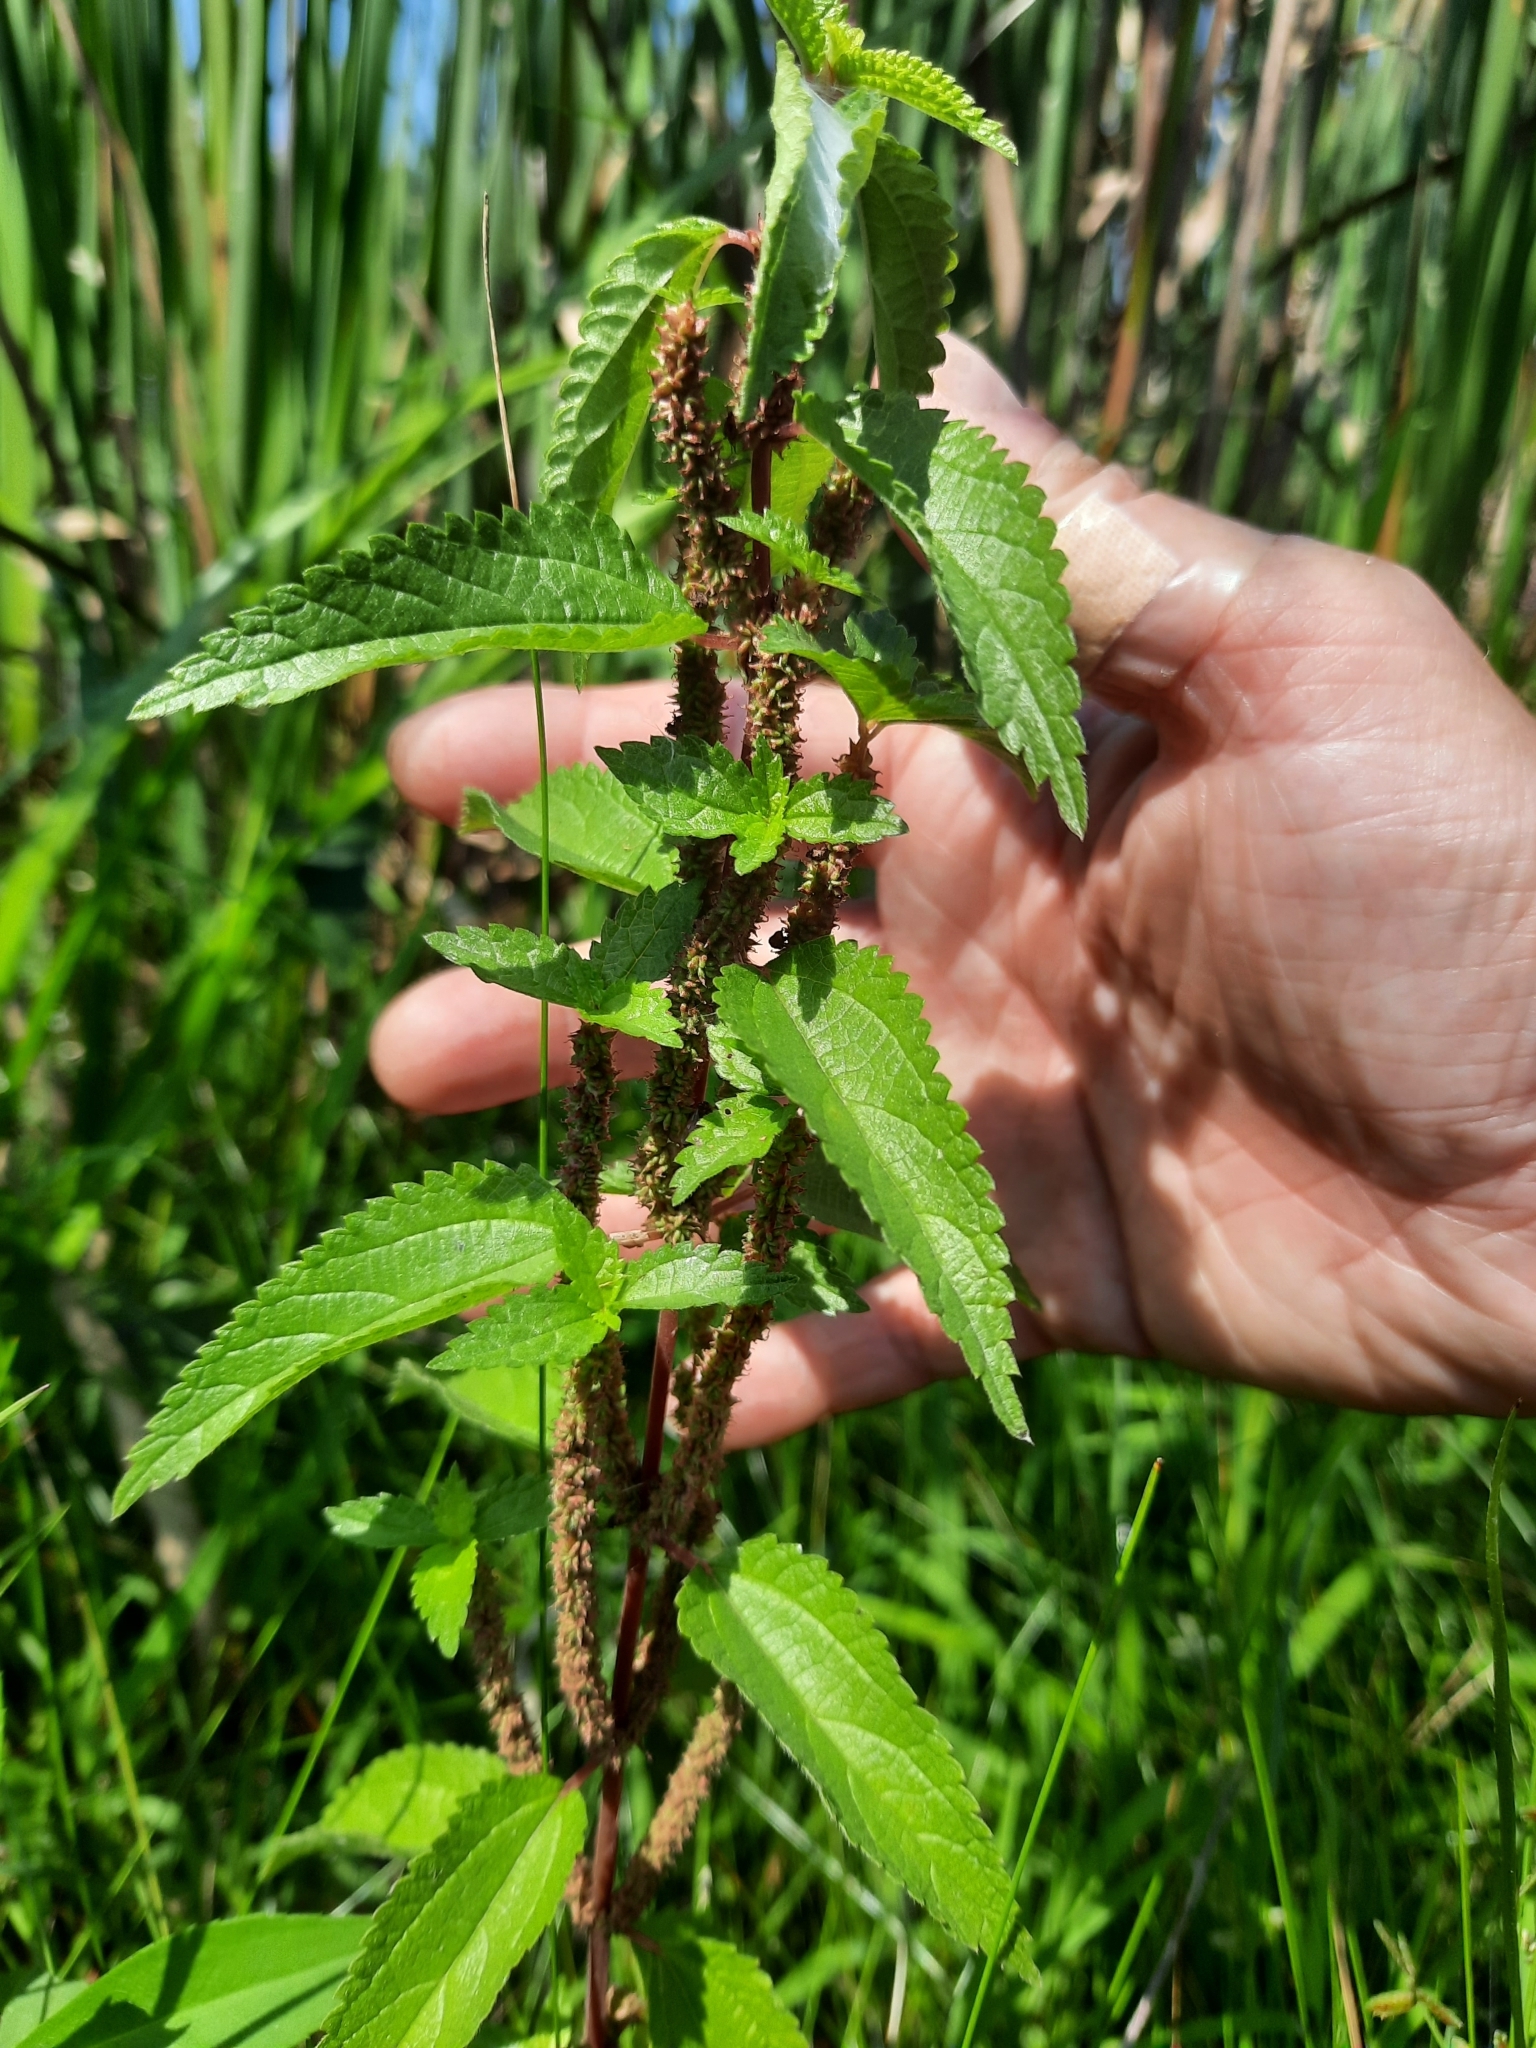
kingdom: Plantae
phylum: Tracheophyta
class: Magnoliopsida
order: Rosales
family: Urticaceae
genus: Boehmeria
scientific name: Boehmeria cylindrica
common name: Bog-hemp
